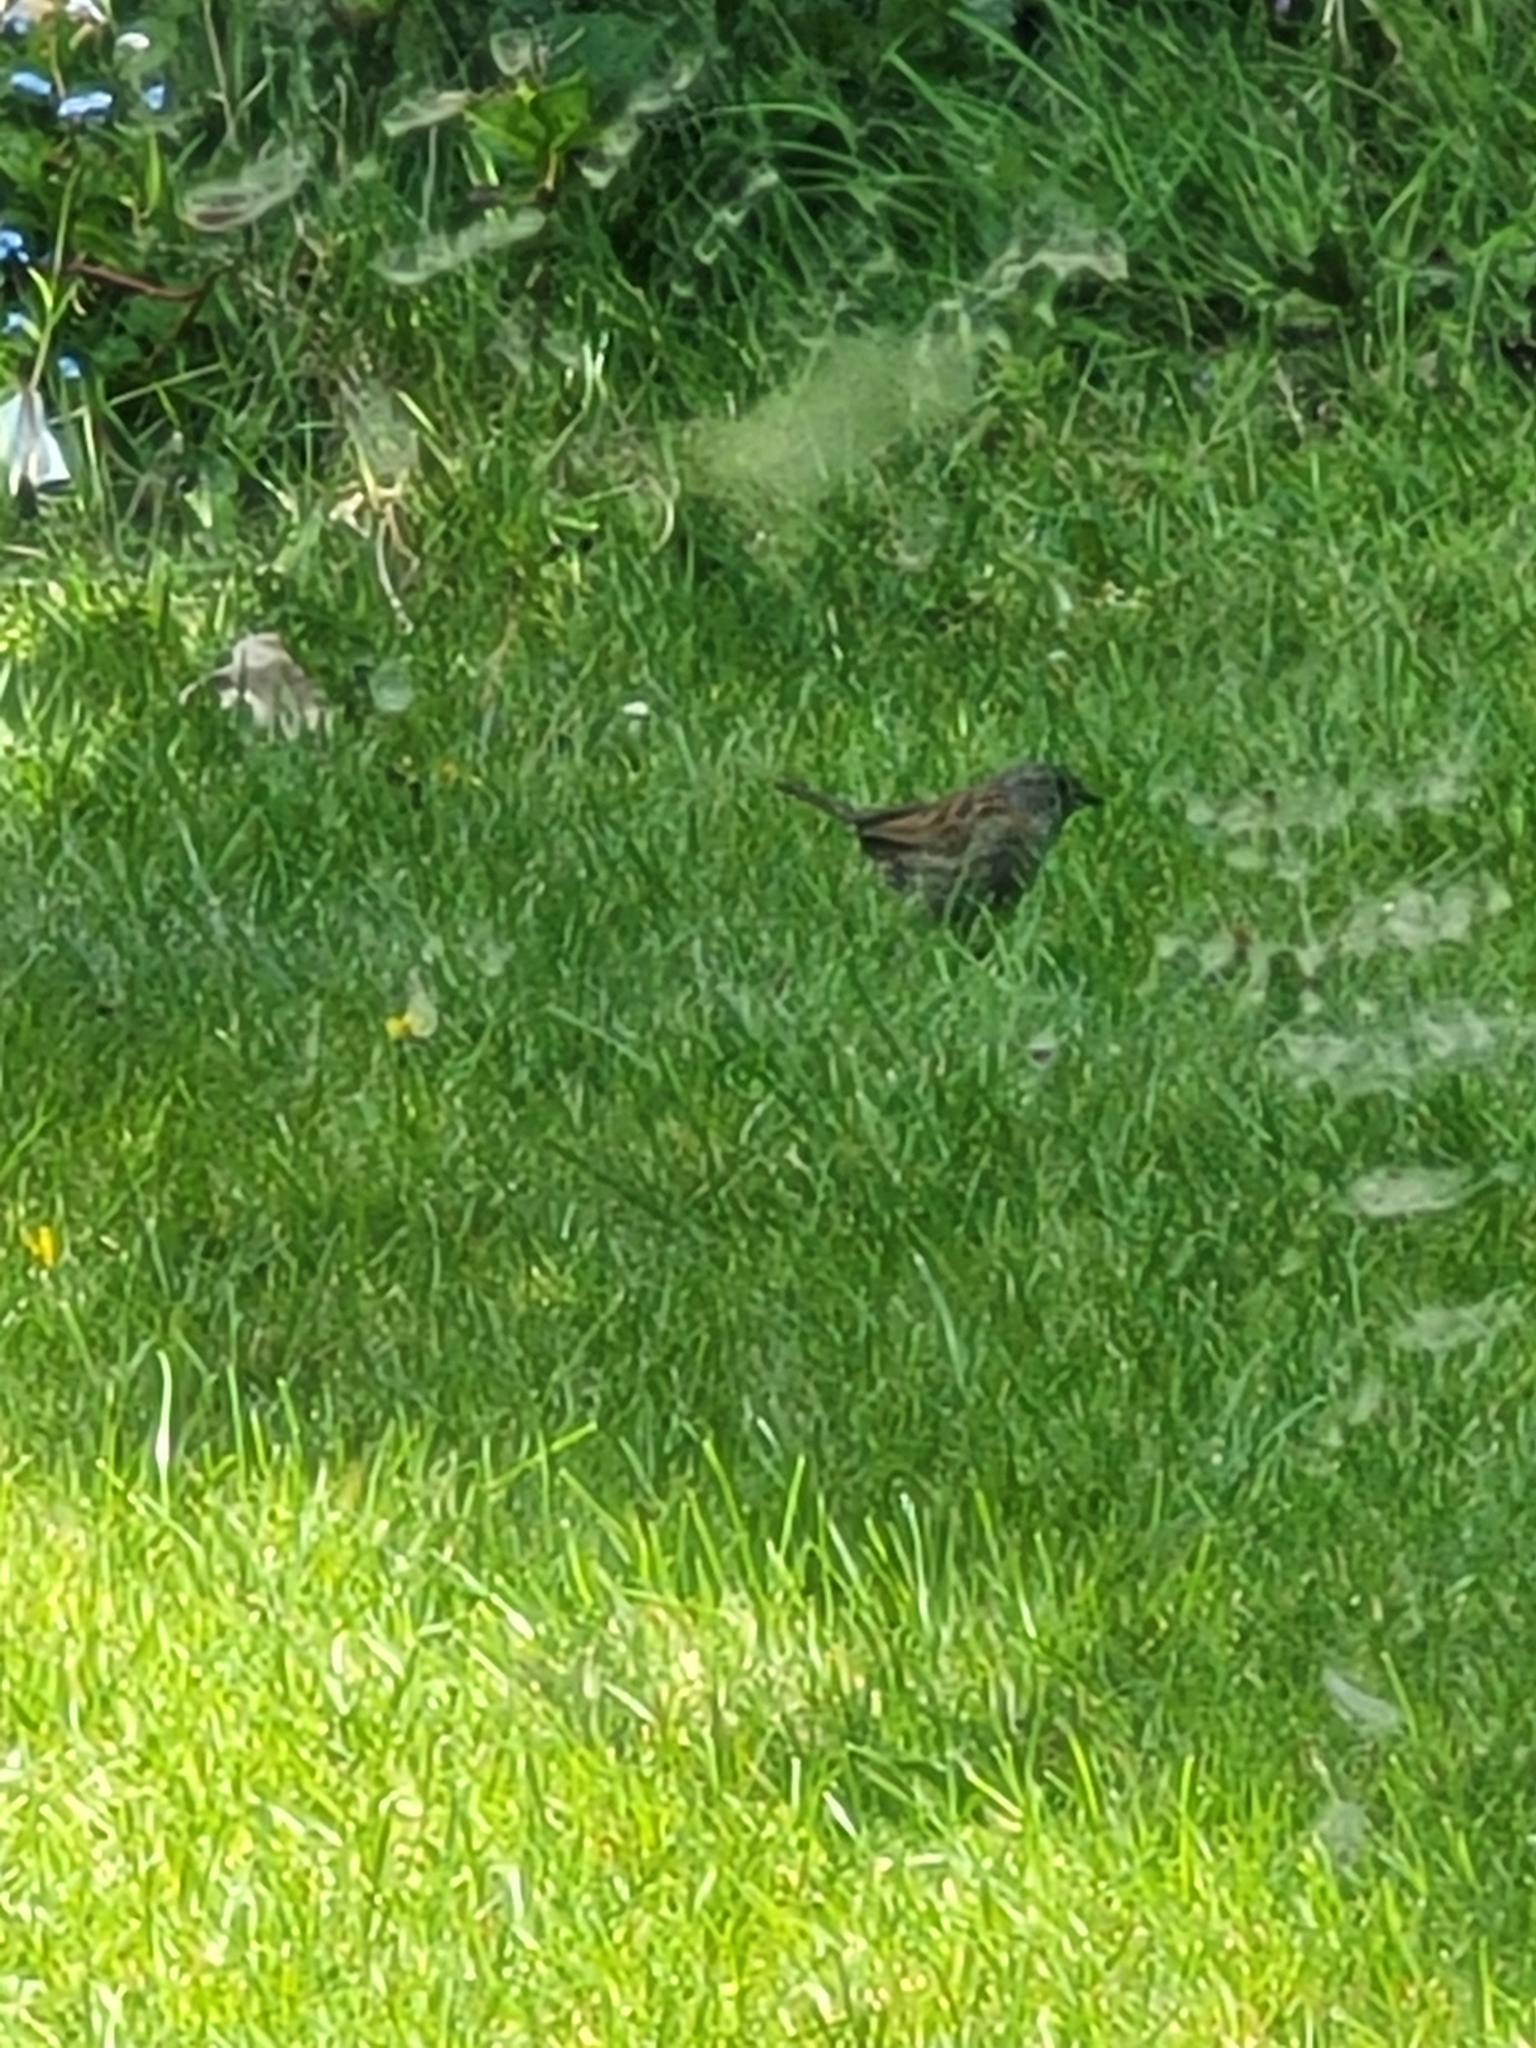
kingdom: Animalia
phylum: Chordata
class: Aves
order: Passeriformes
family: Prunellidae
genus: Prunella
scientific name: Prunella modularis
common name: Dunnock
